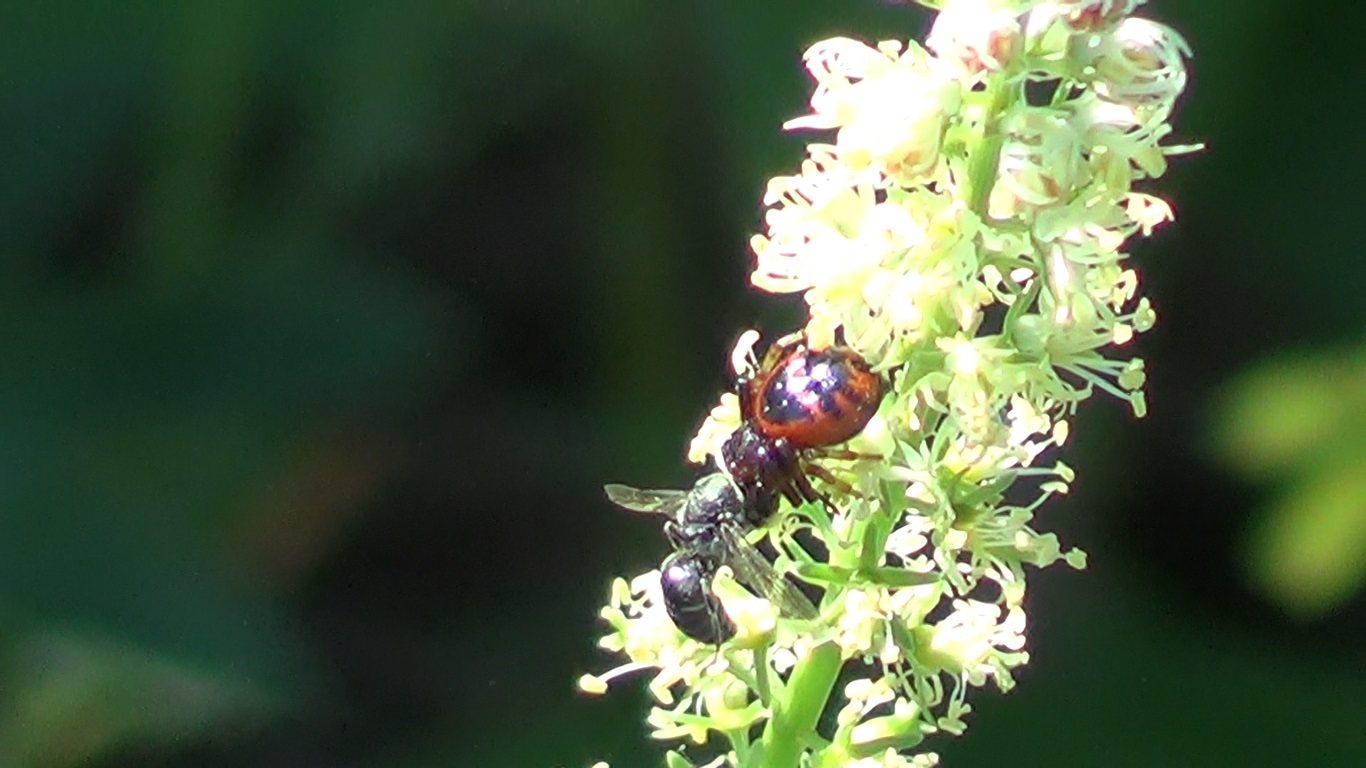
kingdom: Animalia
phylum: Arthropoda
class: Arachnida
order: Araneae
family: Thomisidae
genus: Synema
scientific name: Synema globosum
